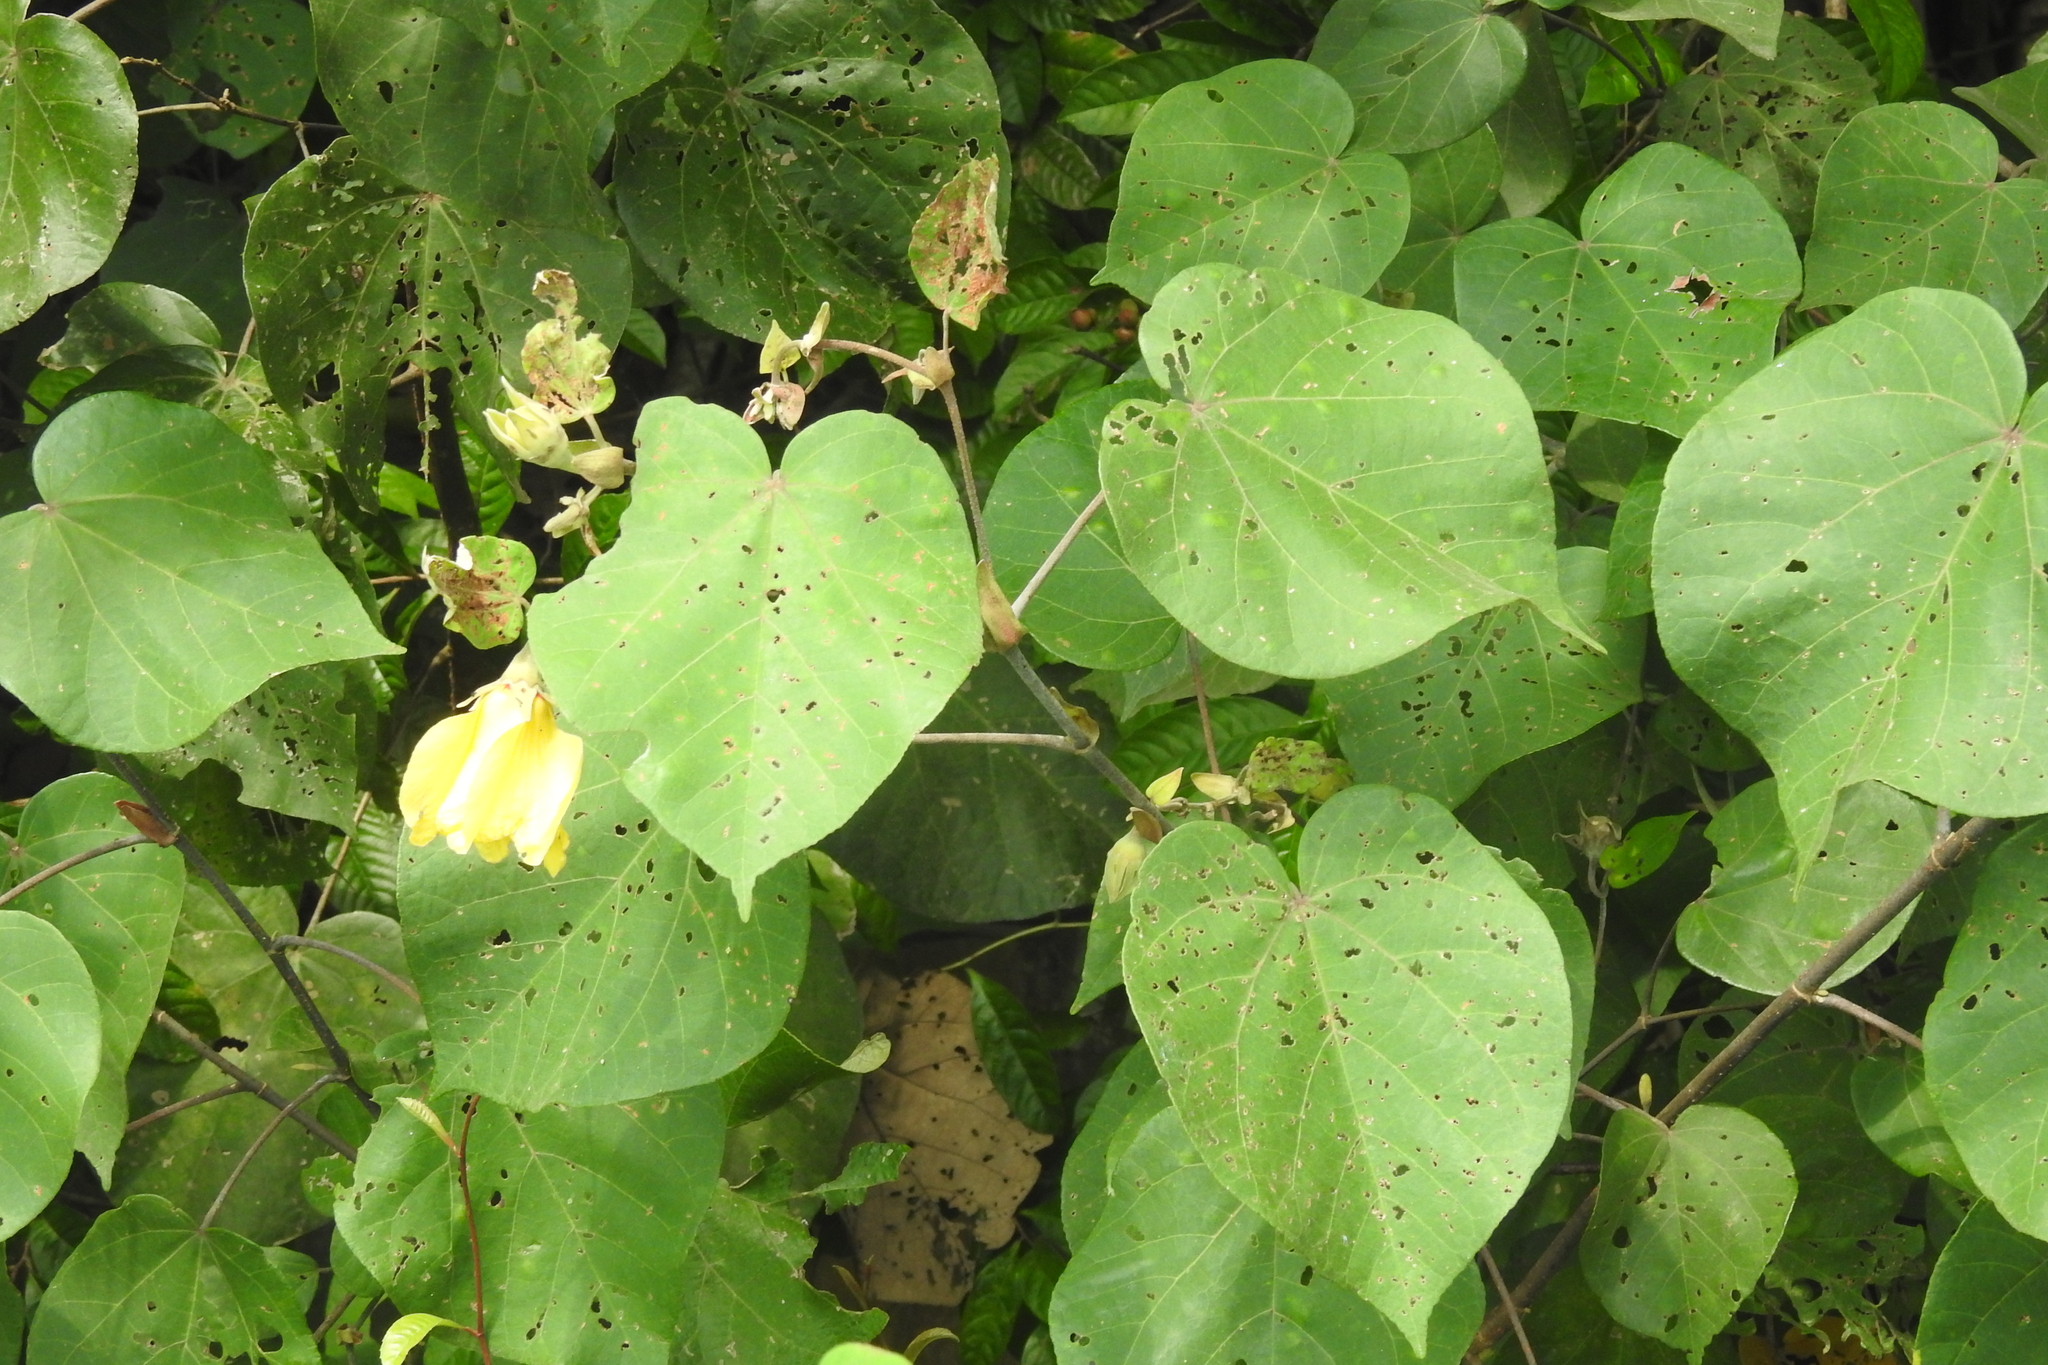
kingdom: Plantae
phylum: Tracheophyta
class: Magnoliopsida
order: Malvales
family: Malvaceae
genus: Talipariti
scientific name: Talipariti tiliaceum
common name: Sea hibiscus
